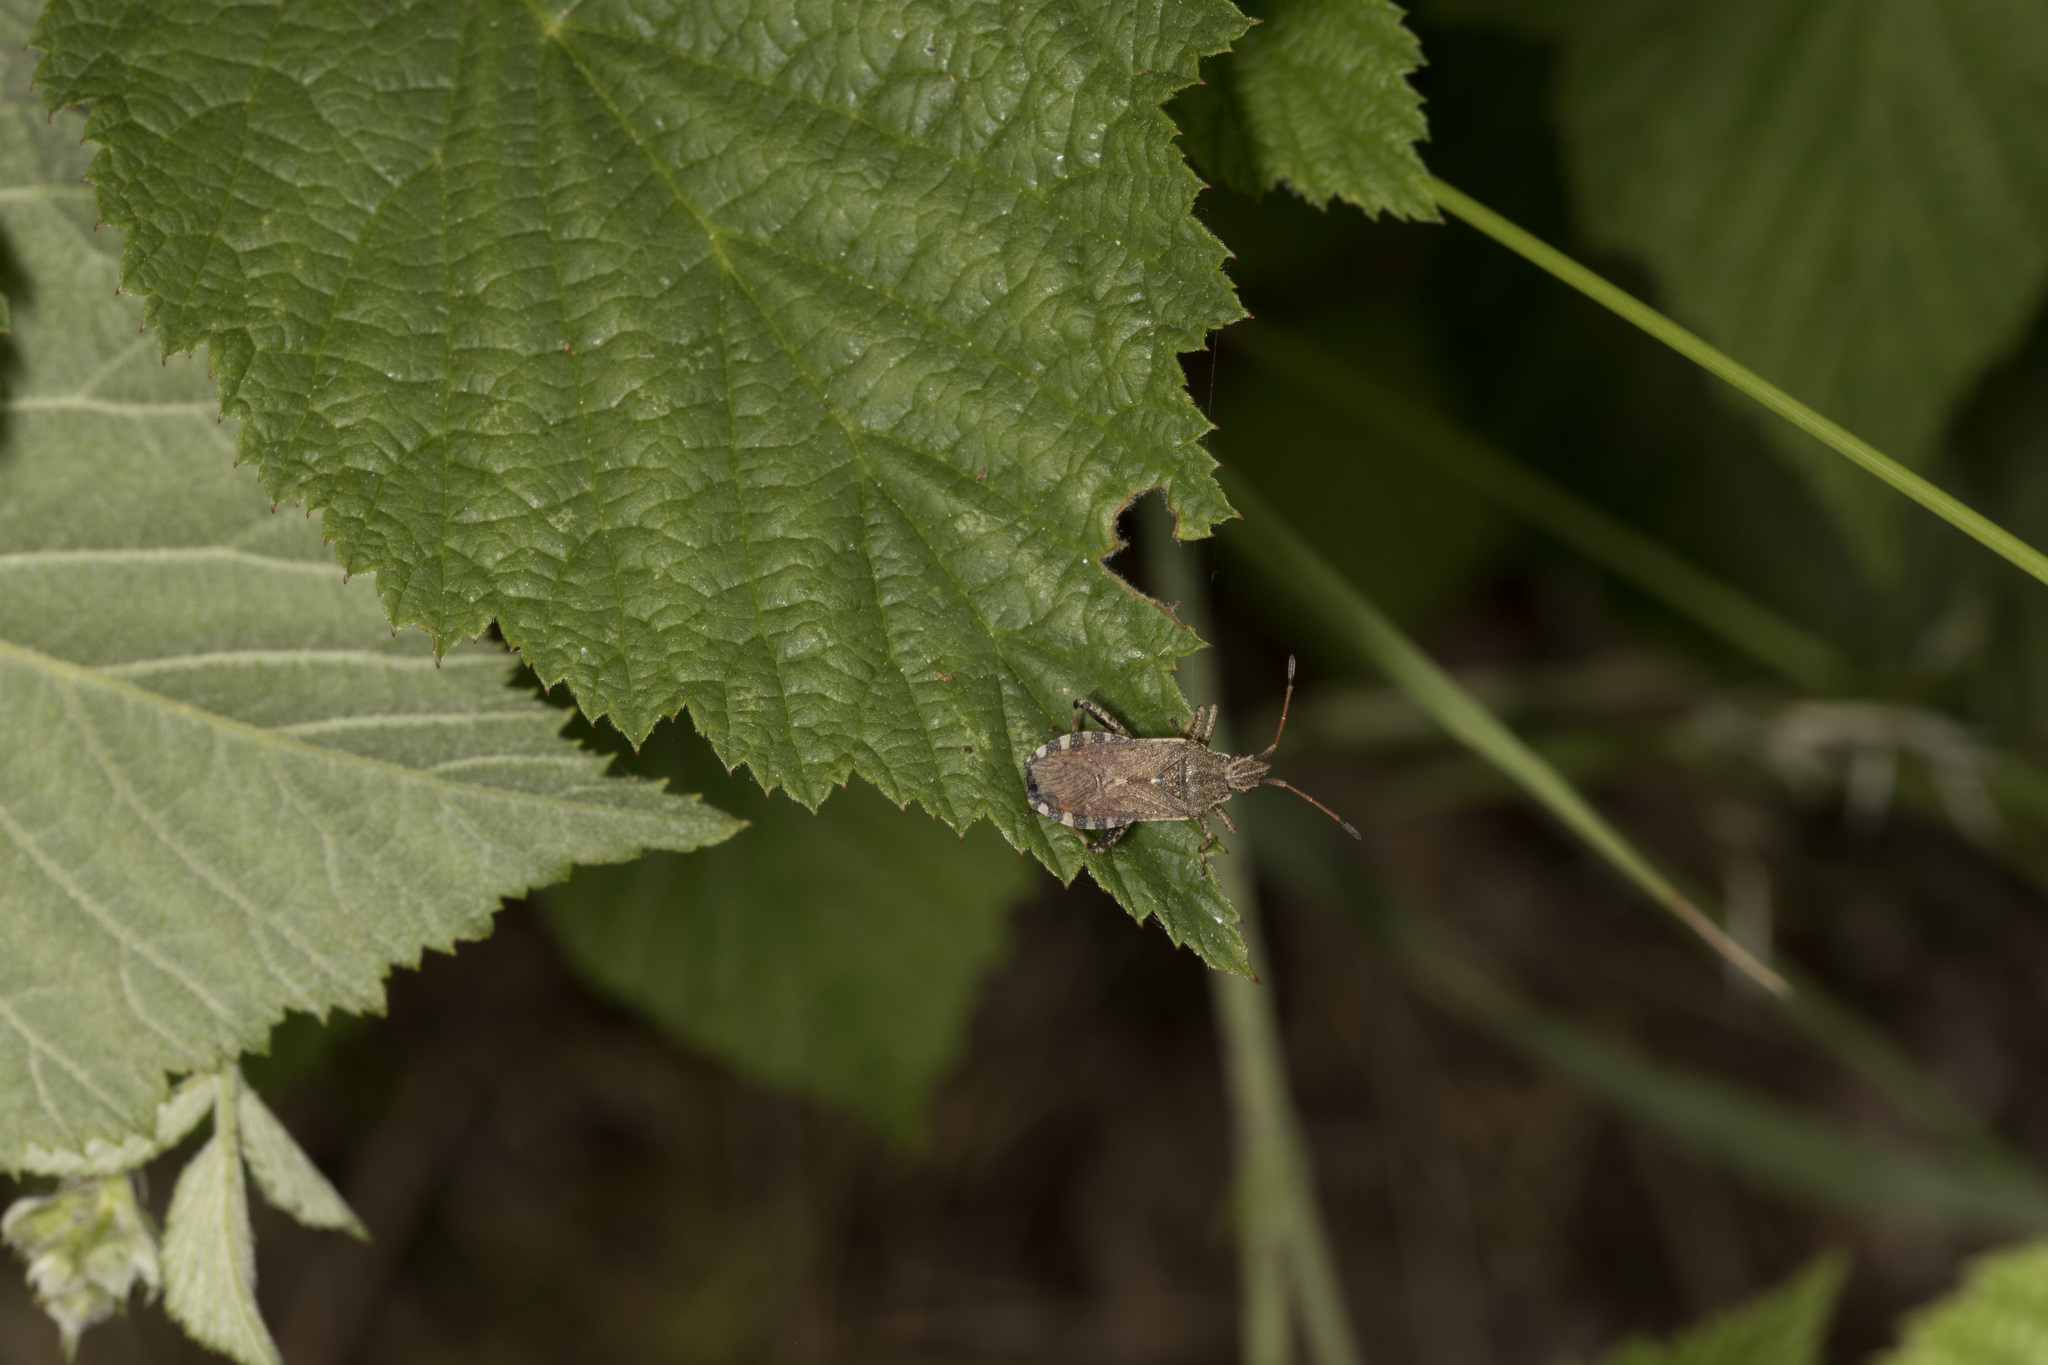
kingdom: Animalia
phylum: Arthropoda
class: Insecta
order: Hemiptera
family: Coreidae
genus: Ceraleptus
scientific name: Ceraleptus gracilicornis
